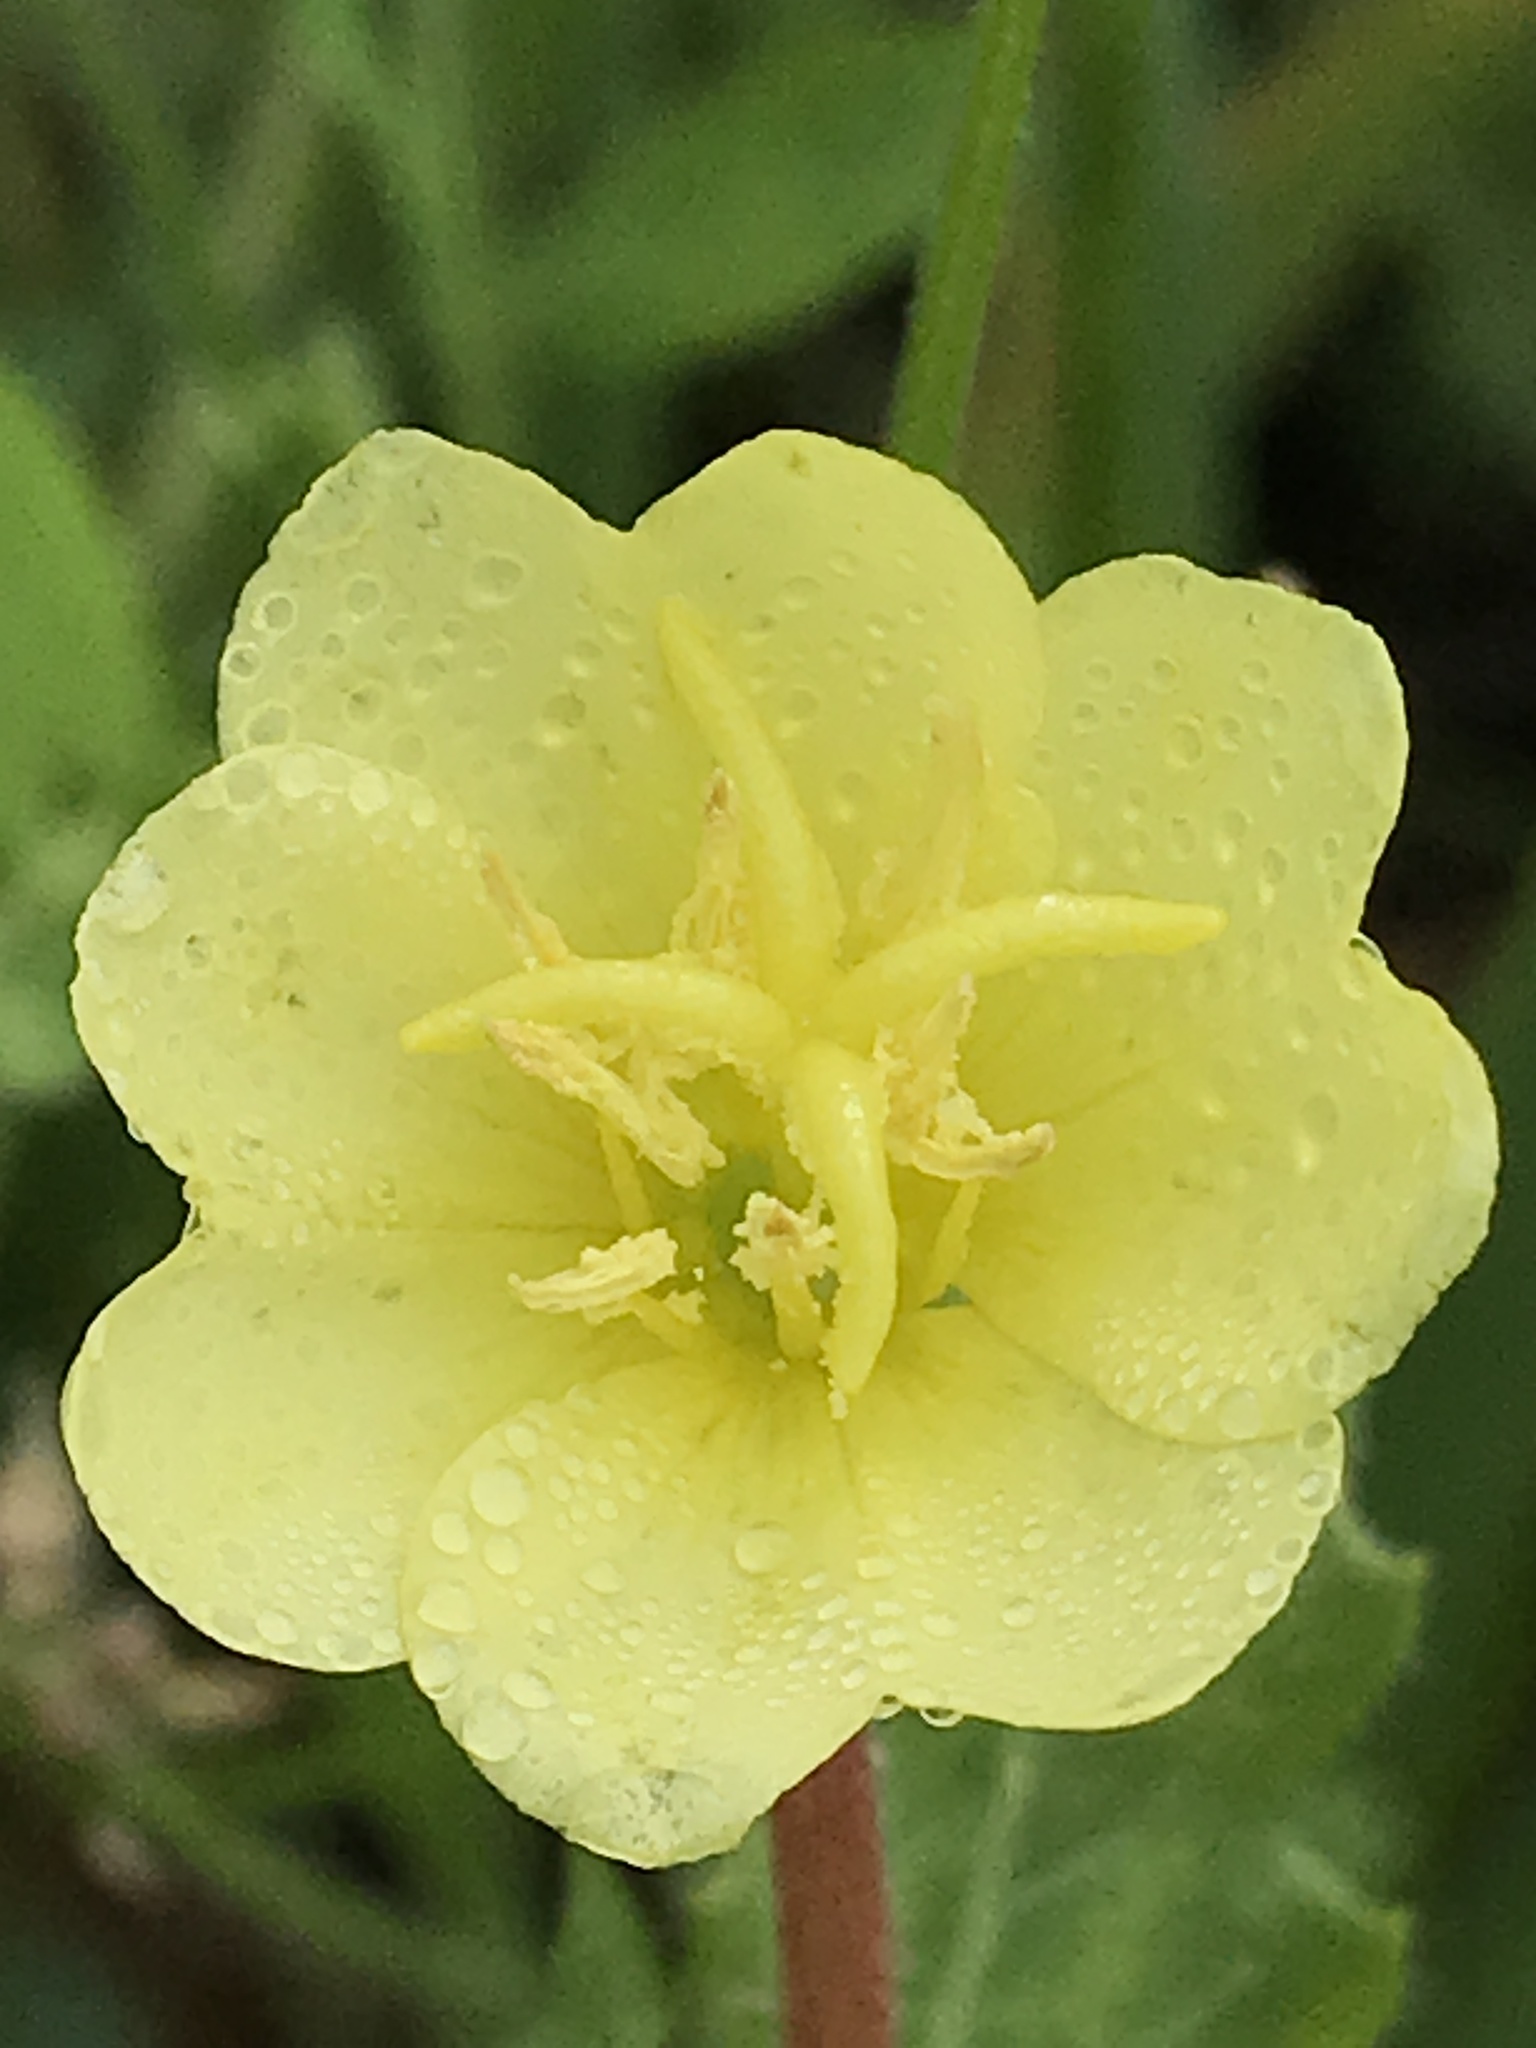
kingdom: Plantae
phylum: Tracheophyta
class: Magnoliopsida
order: Myrtales
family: Onagraceae
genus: Oenothera
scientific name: Oenothera laciniata
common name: Cut-leaved evening-primrose
